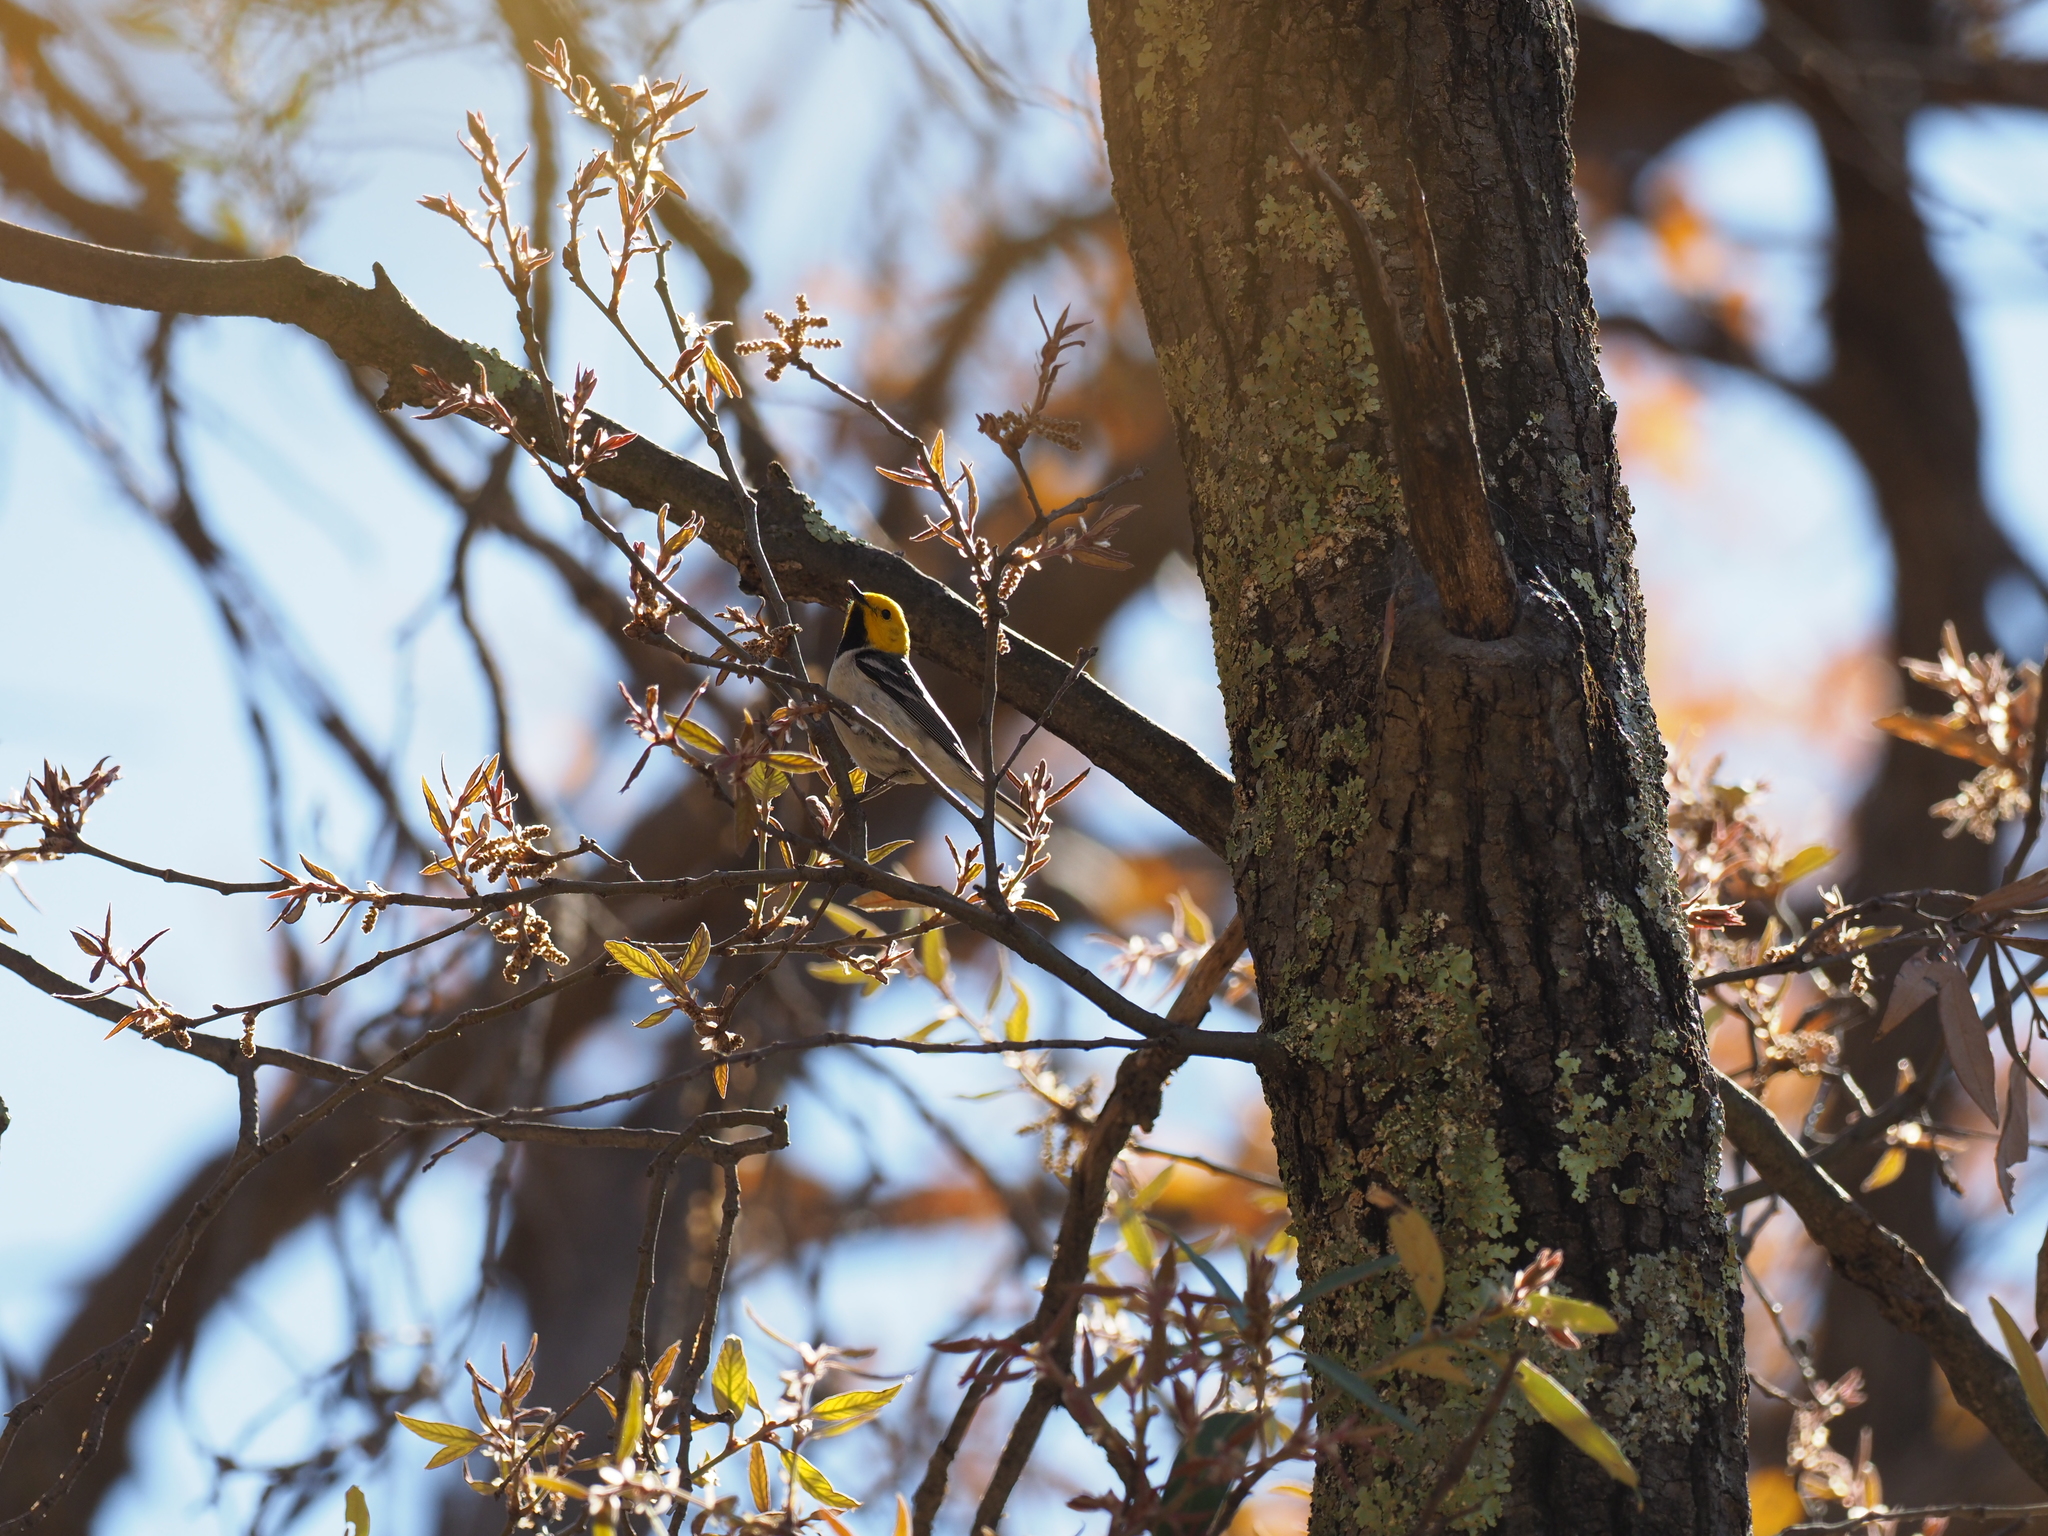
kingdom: Animalia
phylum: Chordata
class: Aves
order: Passeriformes
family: Parulidae
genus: Setophaga
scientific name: Setophaga occidentalis
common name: Hermit warbler
